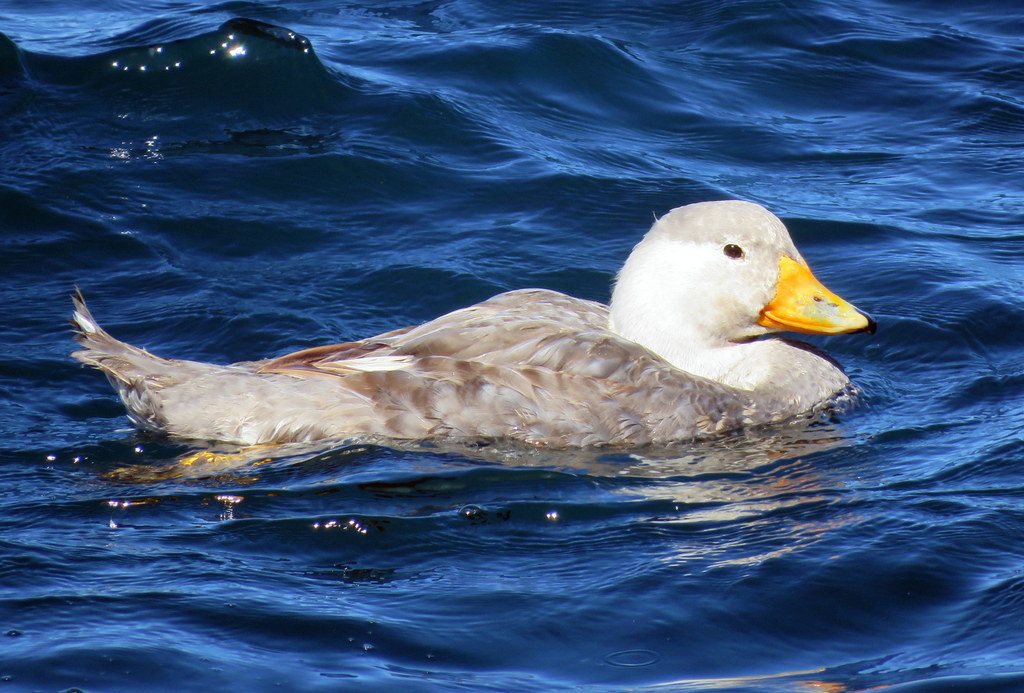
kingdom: Animalia
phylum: Chordata
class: Aves
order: Anseriformes
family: Anatidae
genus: Tachyeres
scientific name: Tachyeres leucocephalus
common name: Chubut steamer duck
